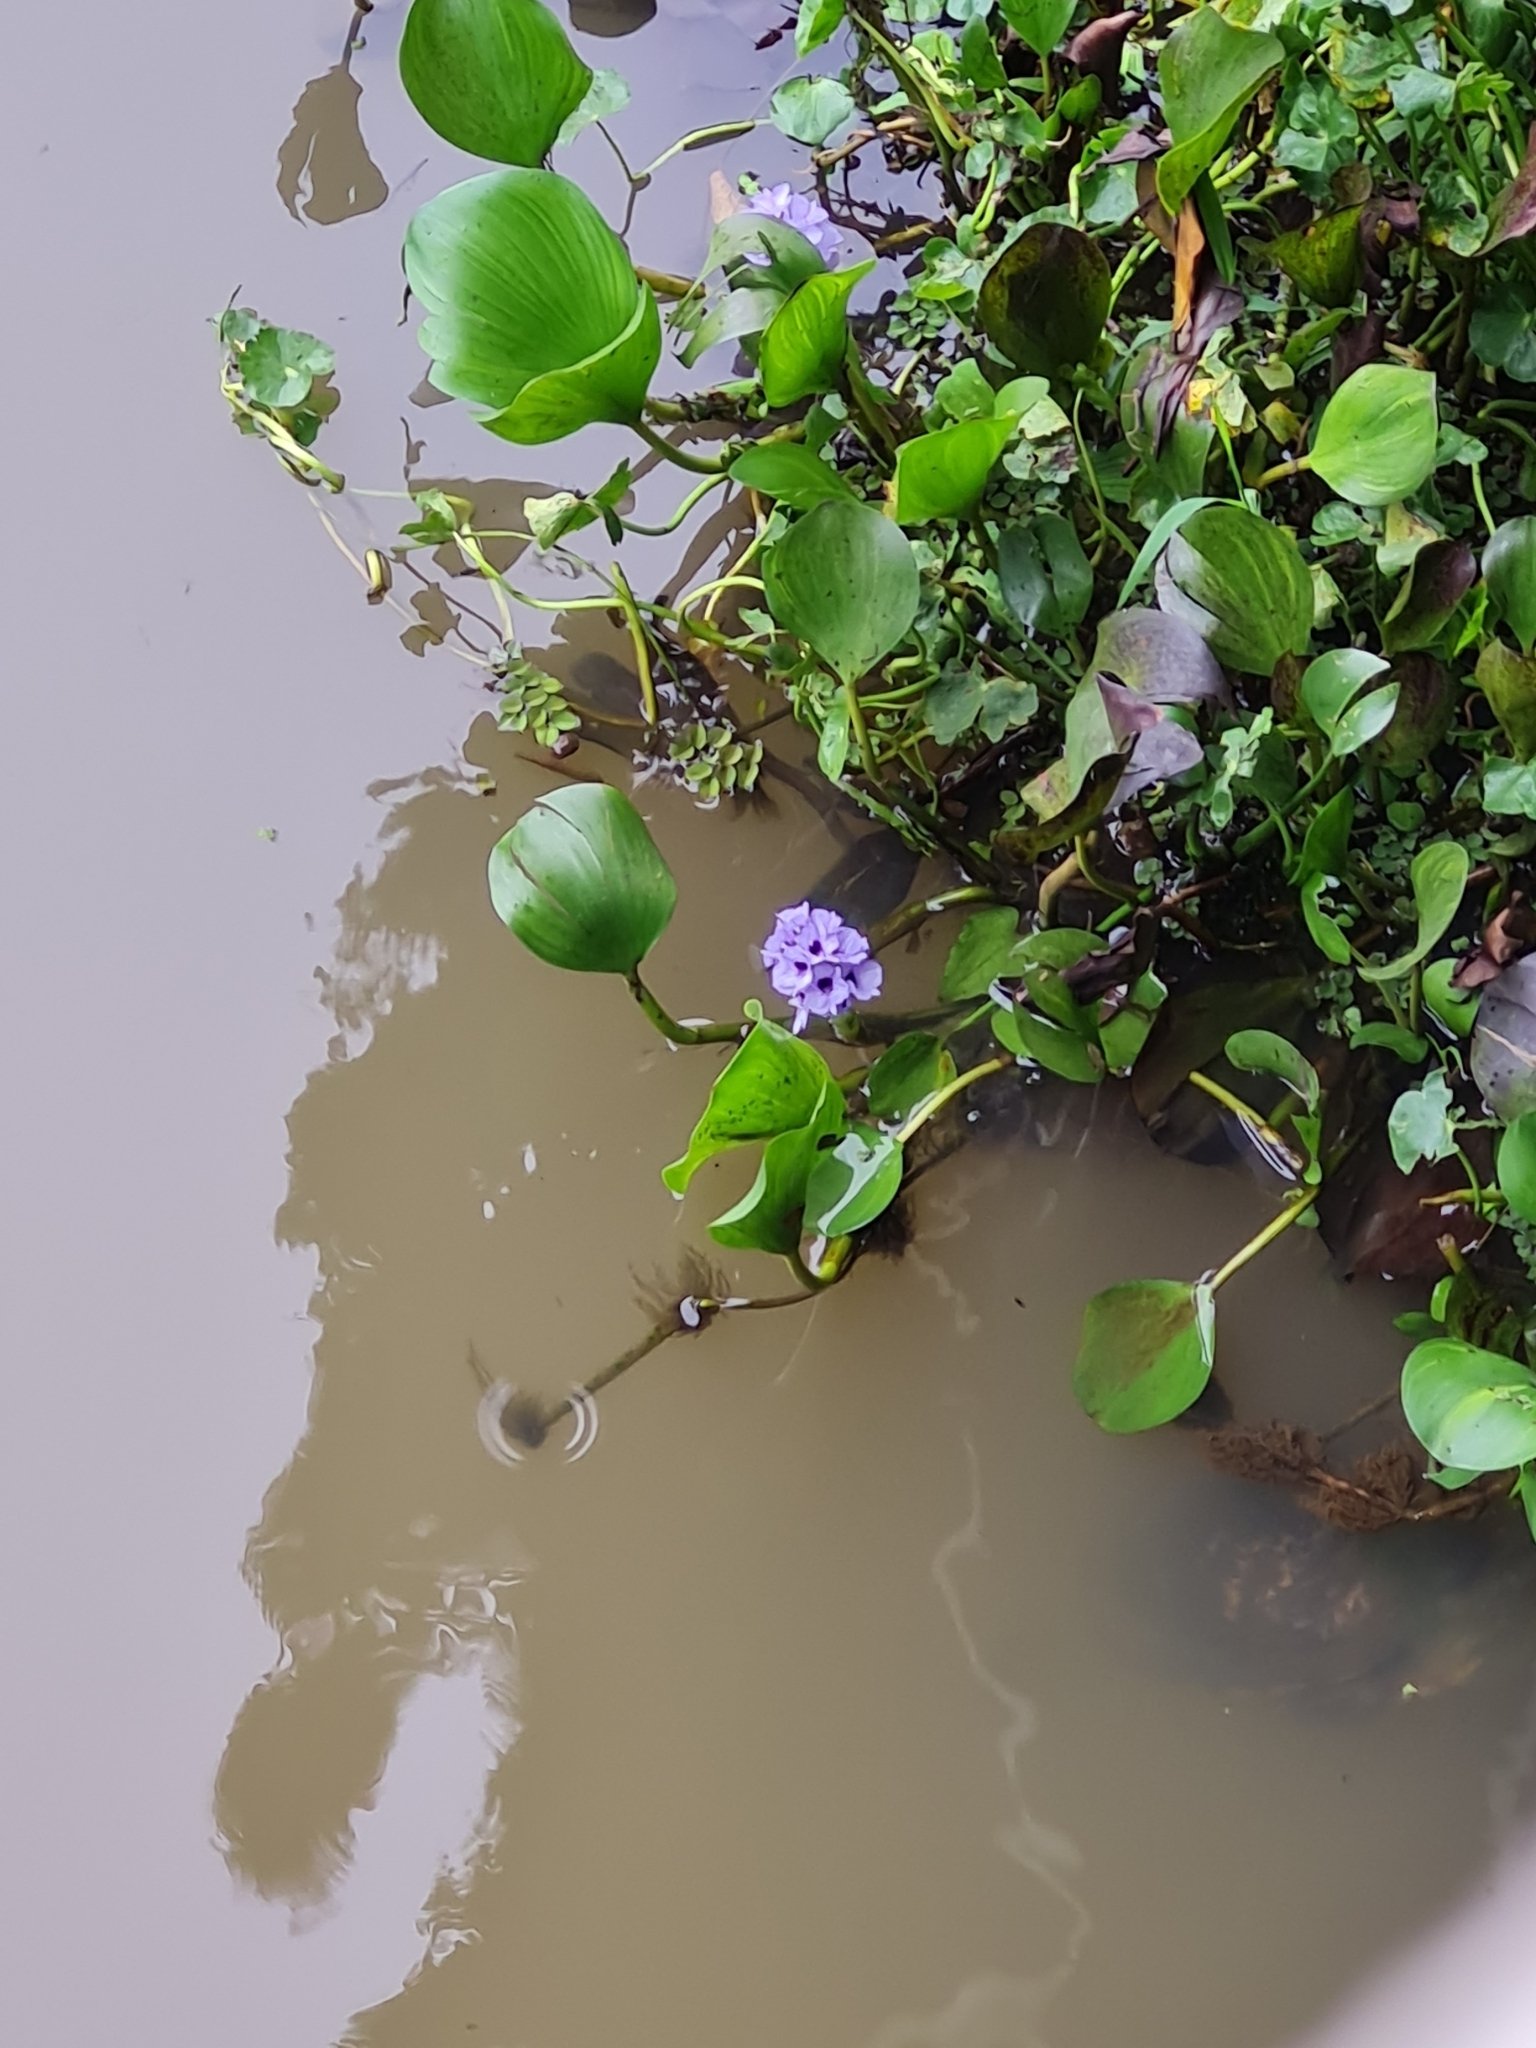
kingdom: Plantae
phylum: Tracheophyta
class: Liliopsida
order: Commelinales
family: Pontederiaceae
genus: Pontederia
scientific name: Pontederia azurea
